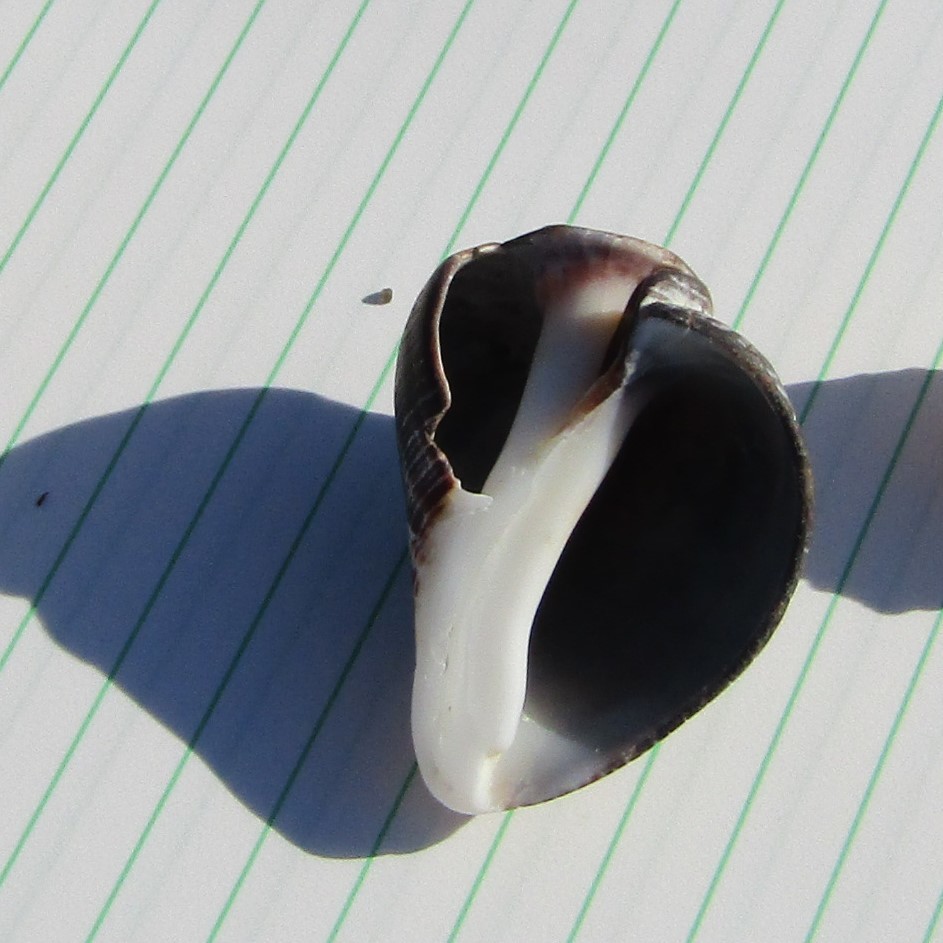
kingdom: Animalia
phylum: Mollusca
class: Gastropoda
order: Neogastropoda
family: Muricidae
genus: Haustrum
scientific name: Haustrum haustorium
